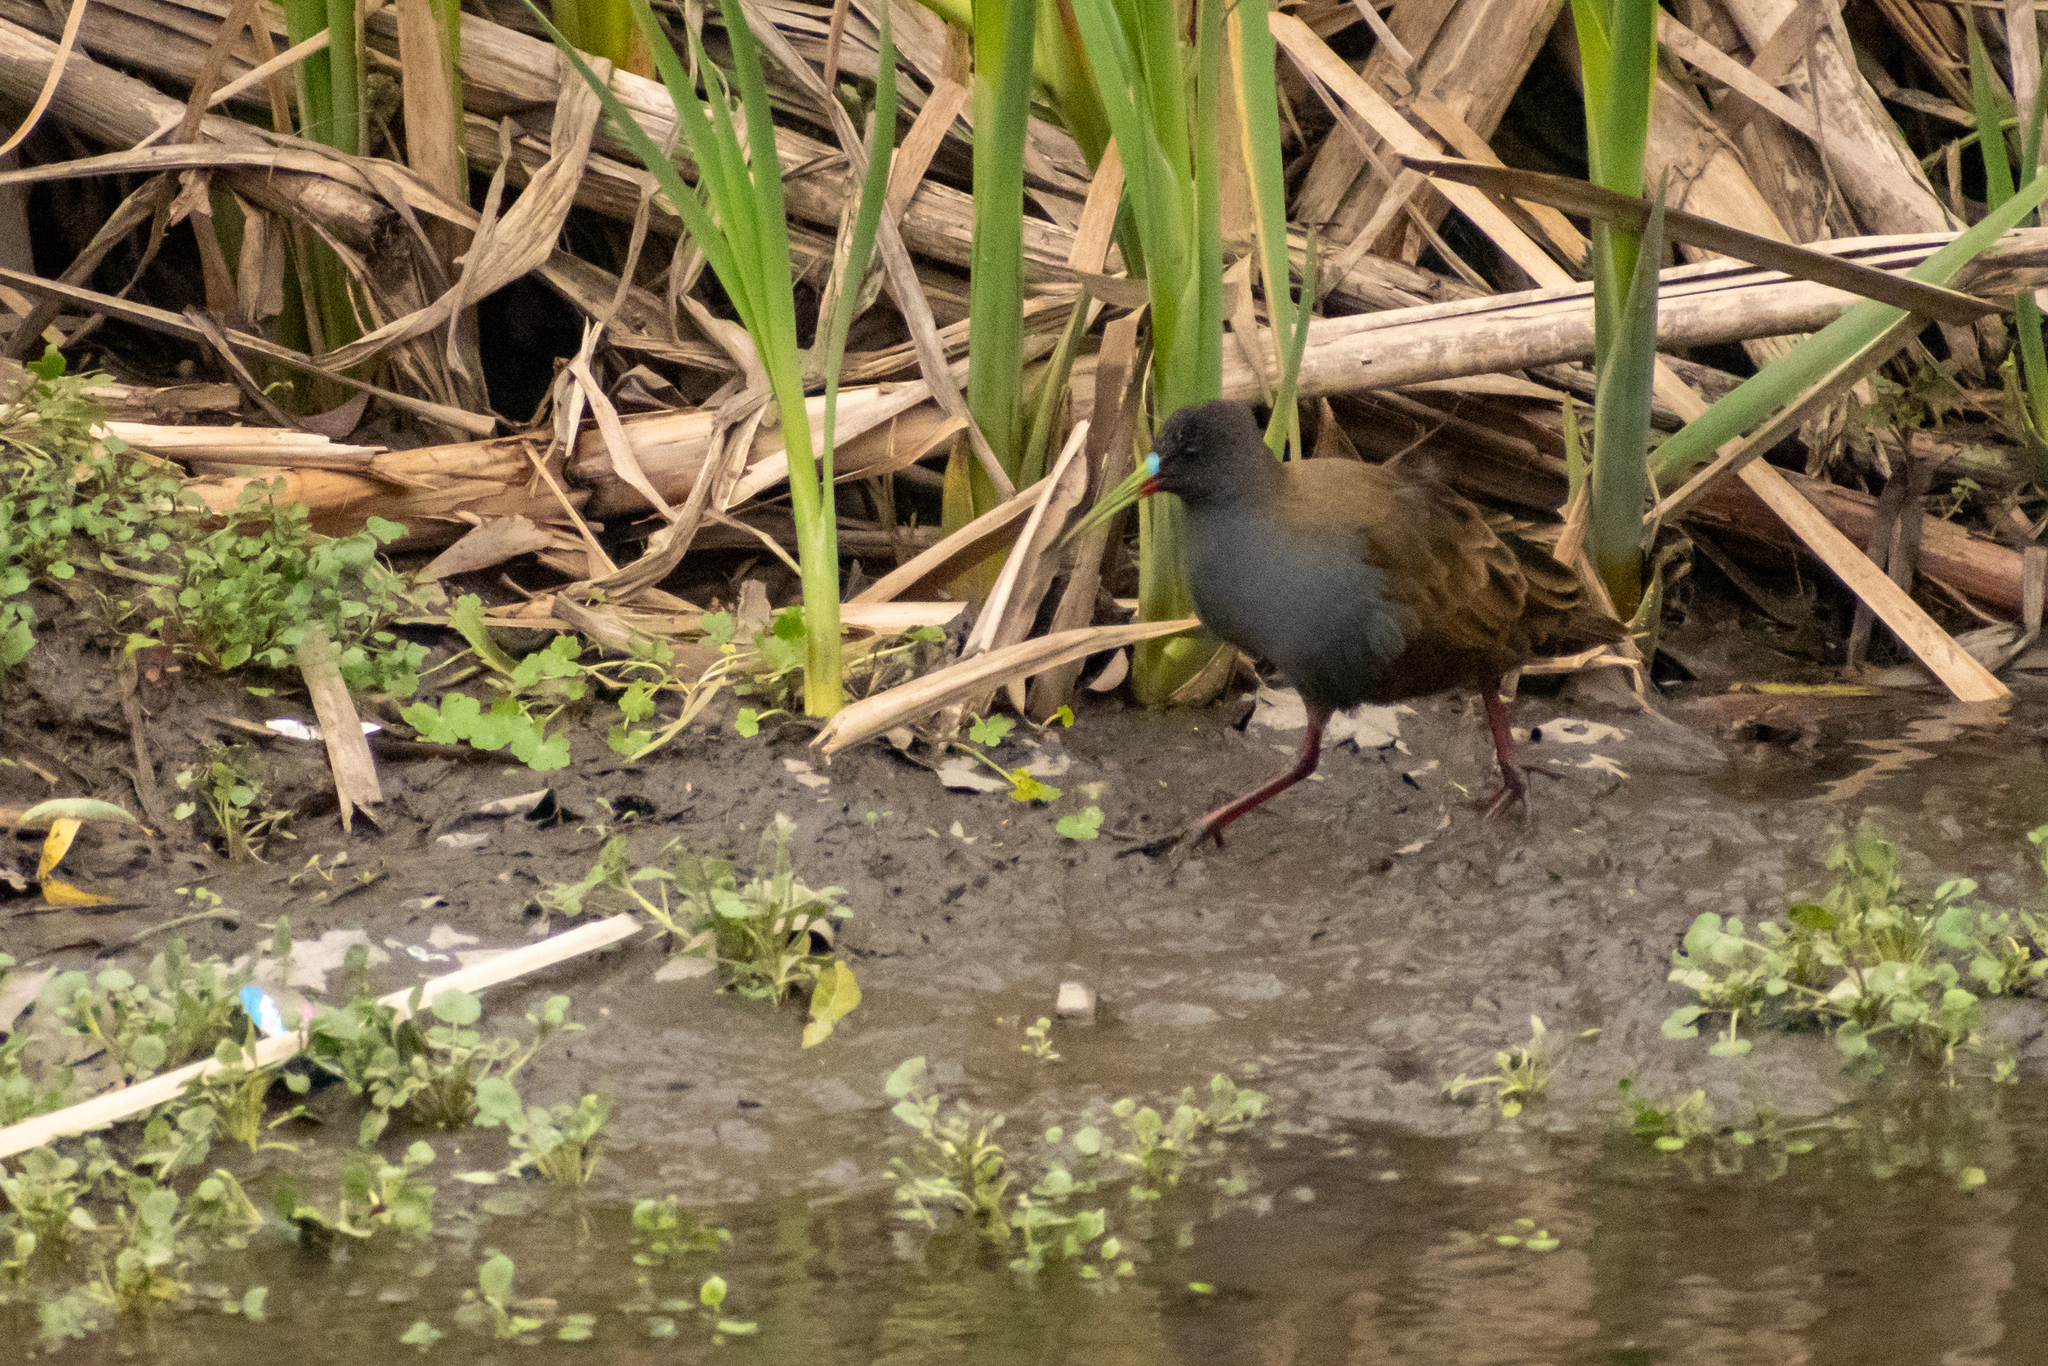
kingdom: Animalia
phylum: Chordata
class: Aves
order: Gruiformes
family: Rallidae
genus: Pardirallus
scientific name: Pardirallus sanguinolentus
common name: Plumbeous rail
